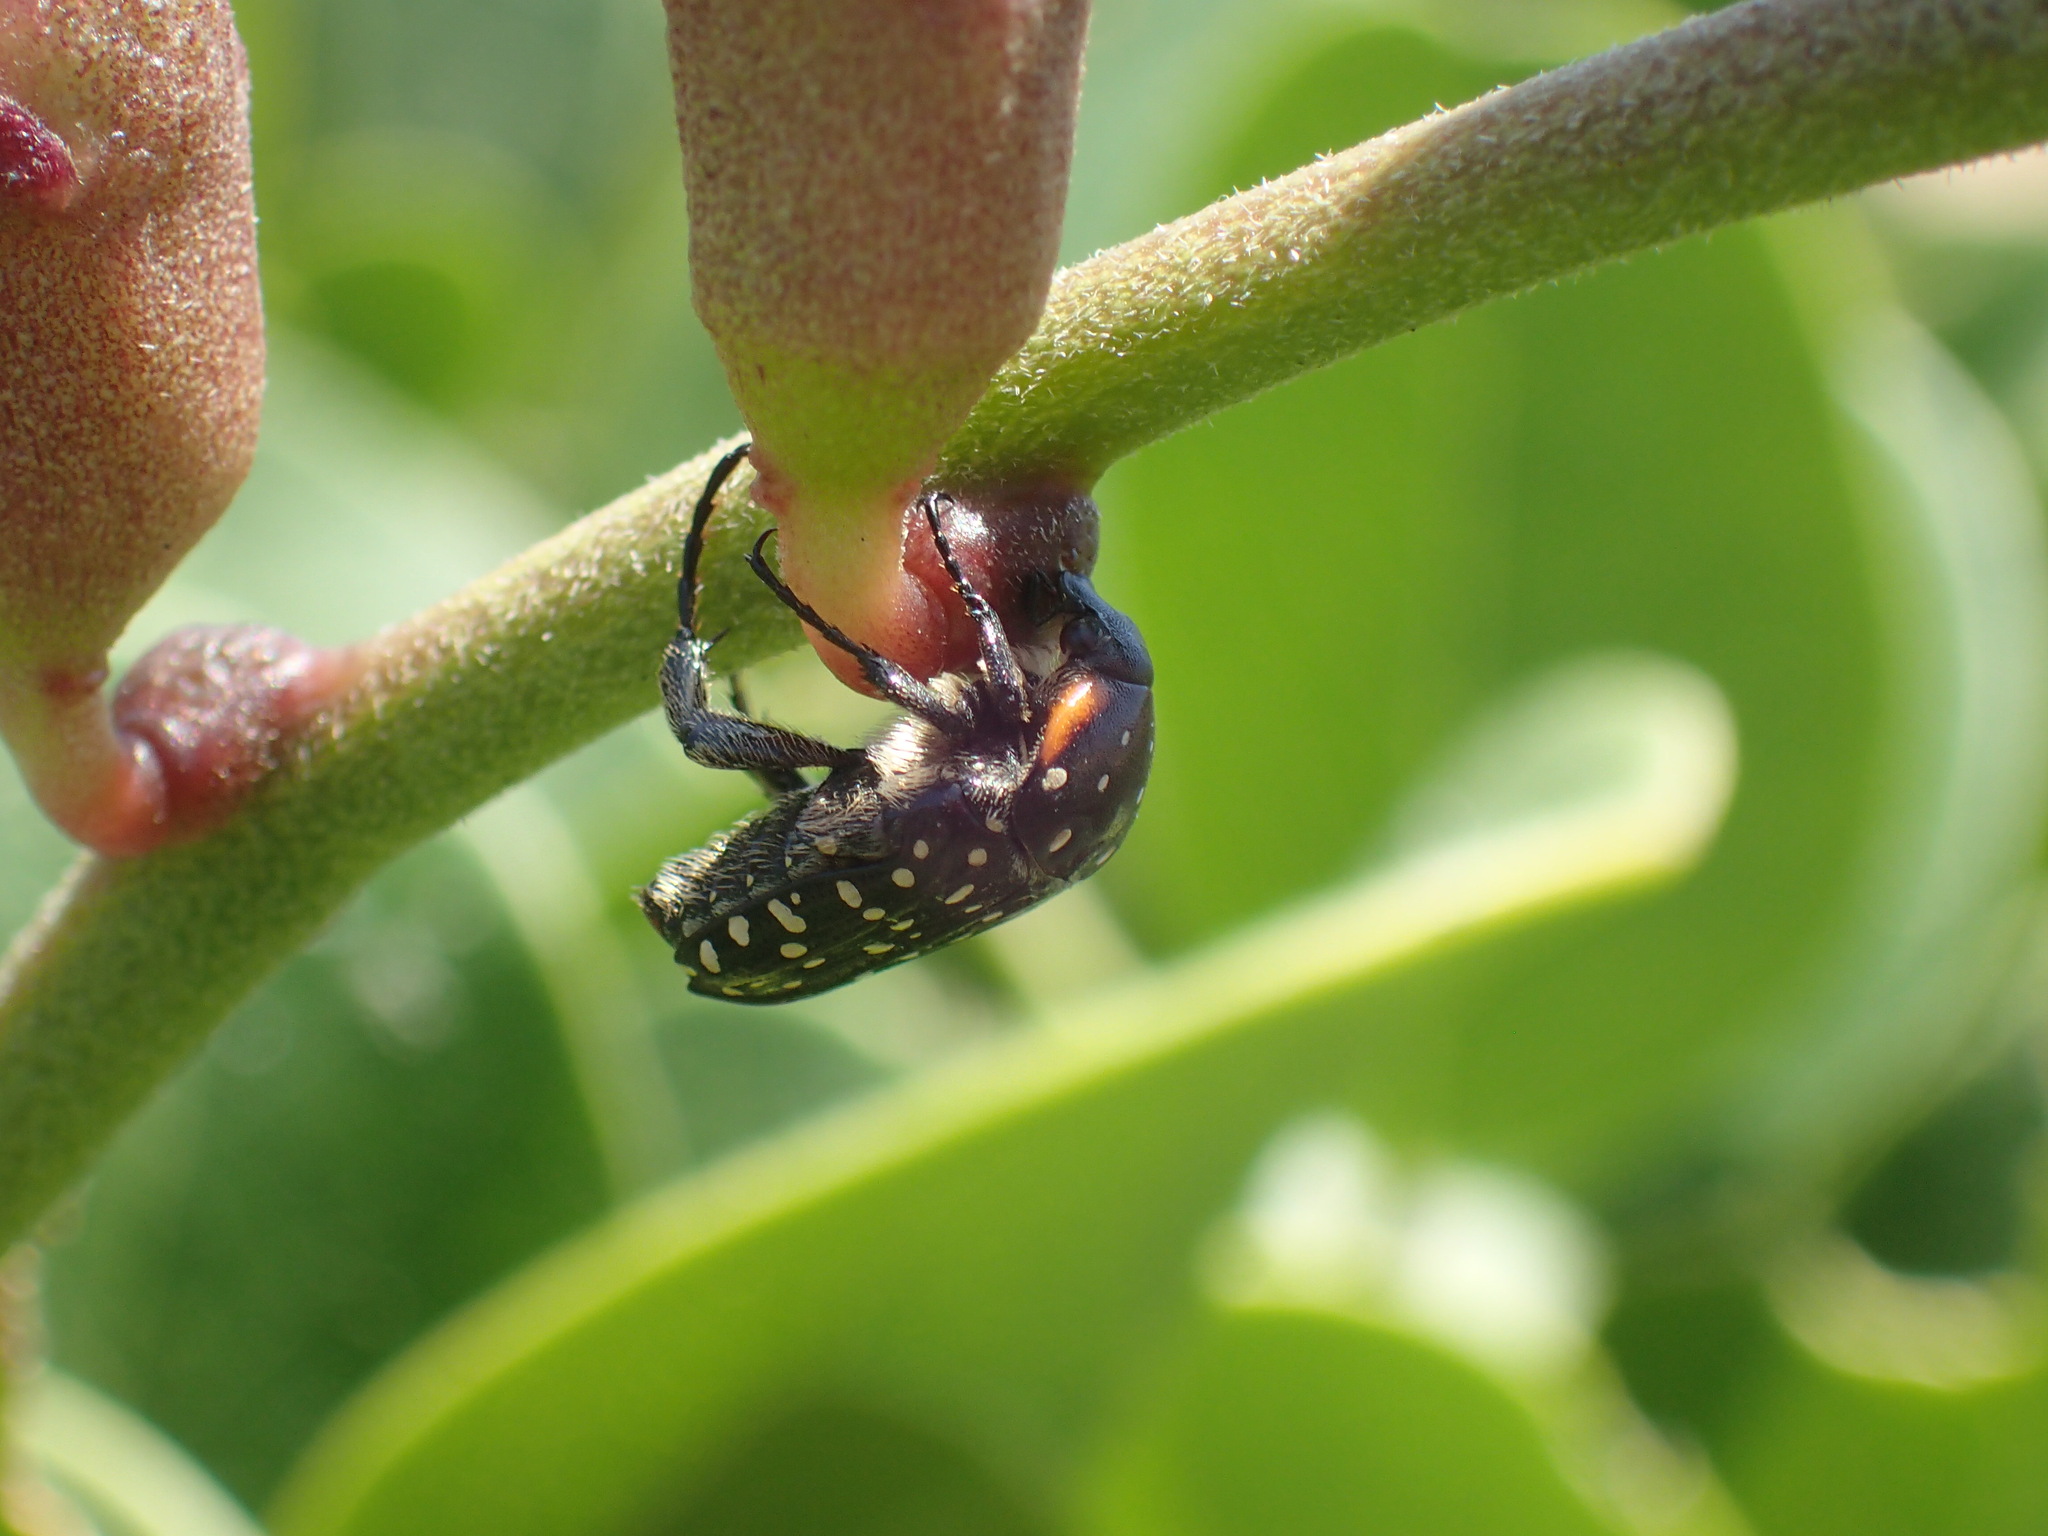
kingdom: Animalia
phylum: Arthropoda
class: Insecta
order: Coleoptera
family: Scarabaeidae
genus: Oxythyrea
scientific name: Oxythyrea
